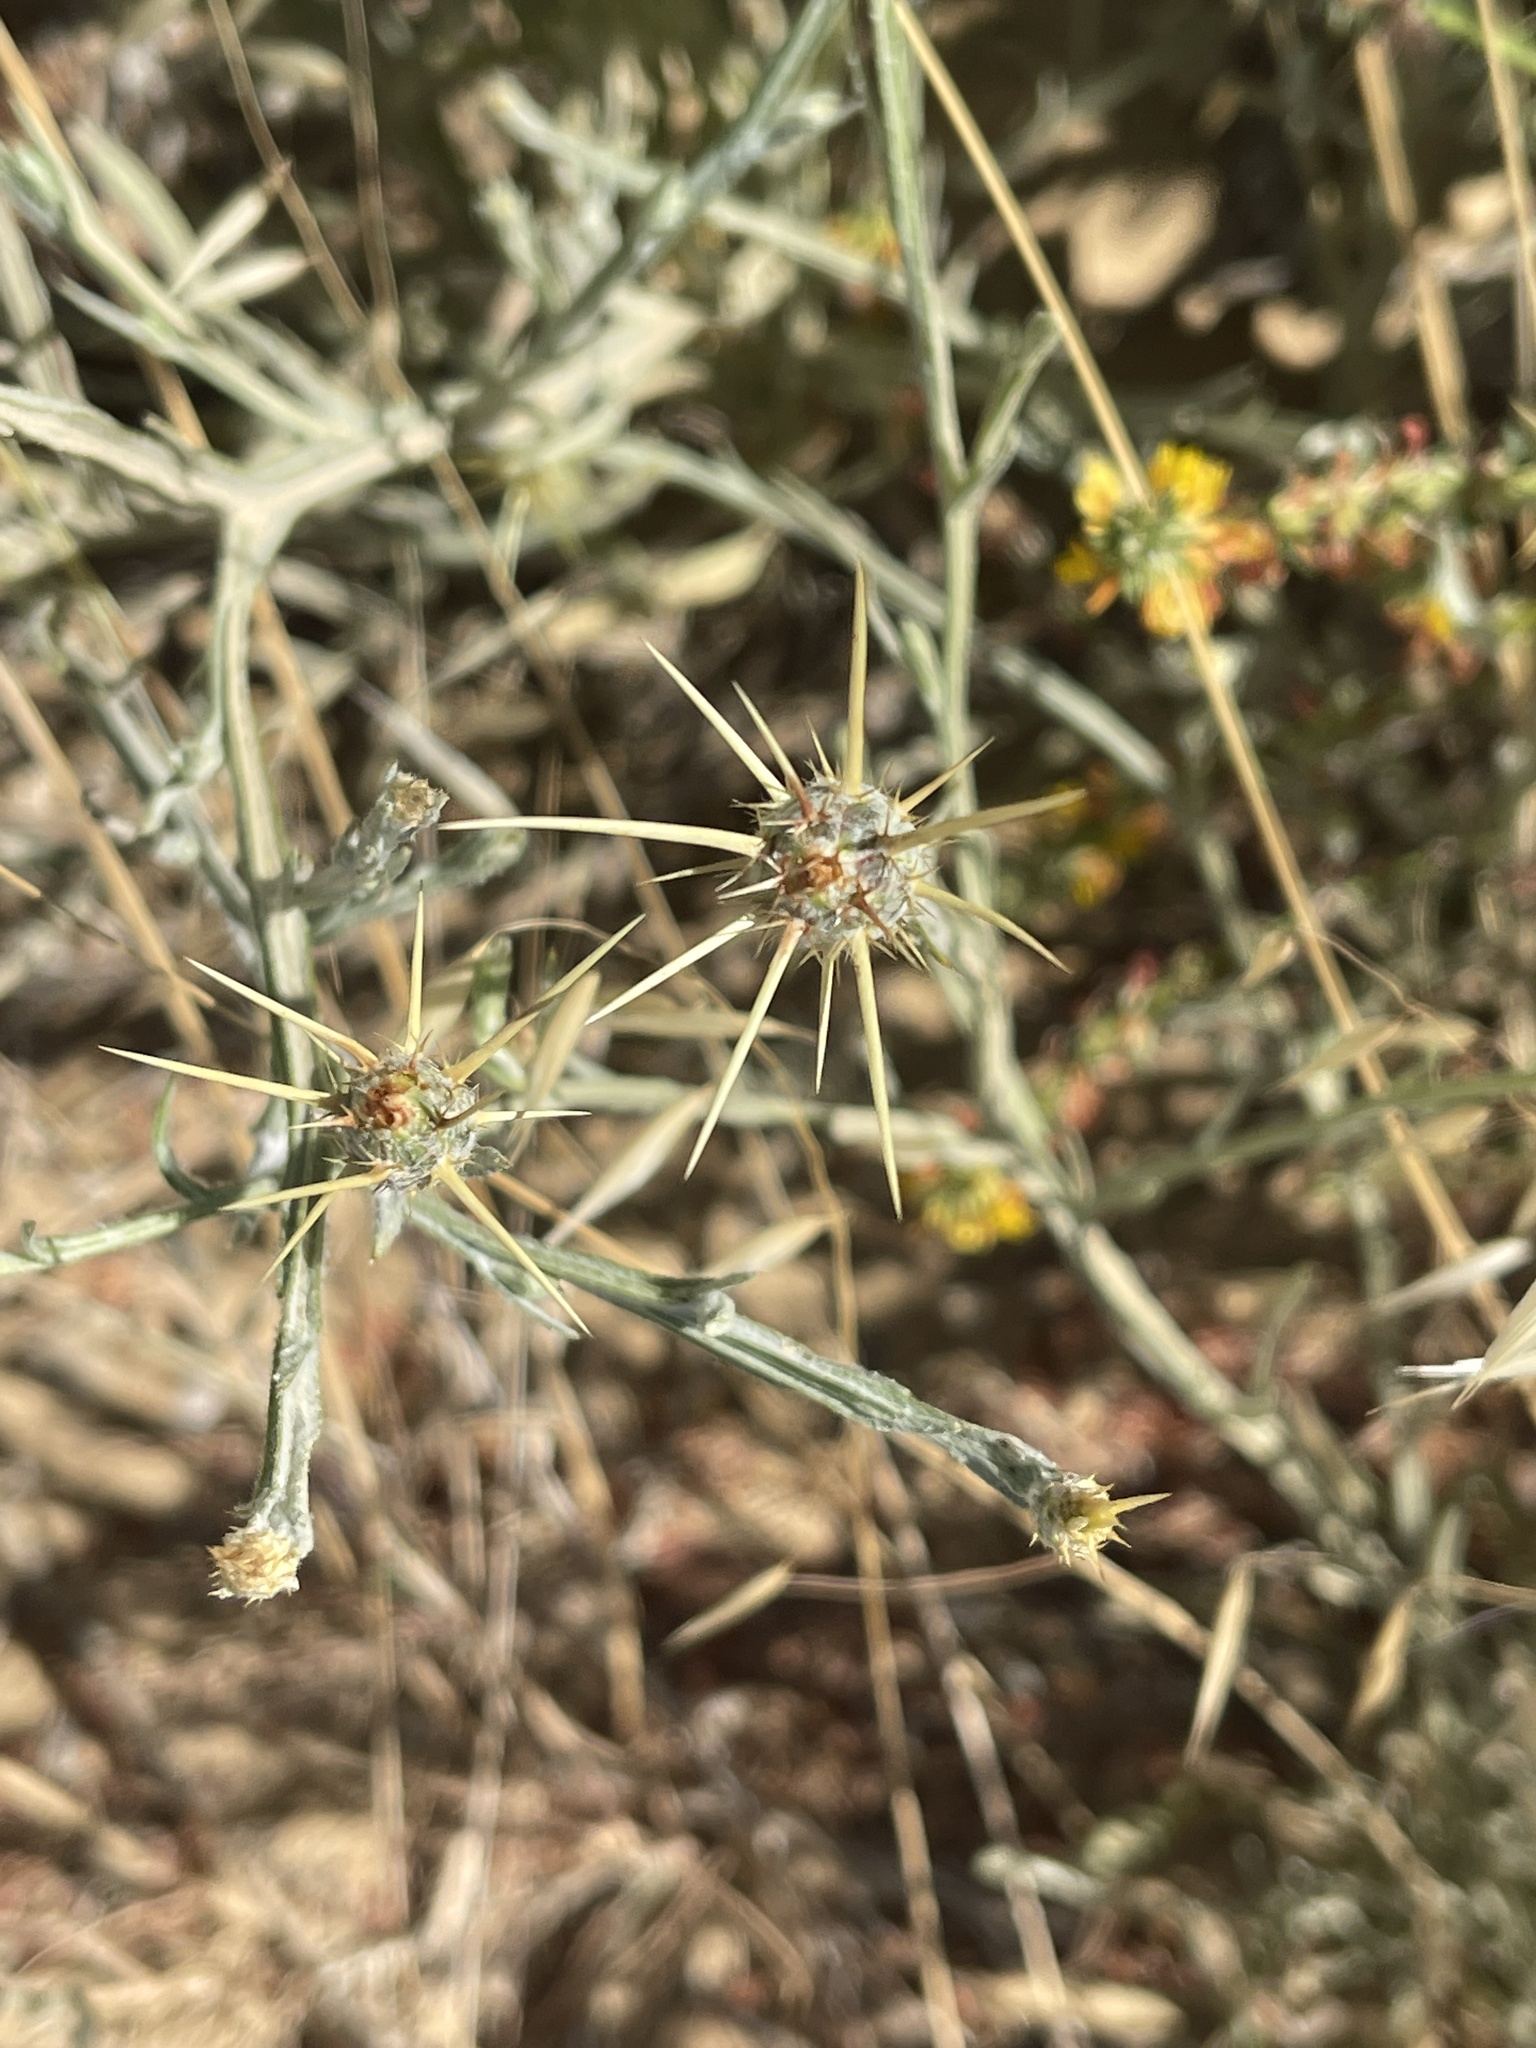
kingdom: Plantae
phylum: Tracheophyta
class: Magnoliopsida
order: Asterales
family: Asteraceae
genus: Centaurea
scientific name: Centaurea solstitialis
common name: Yellow star-thistle
